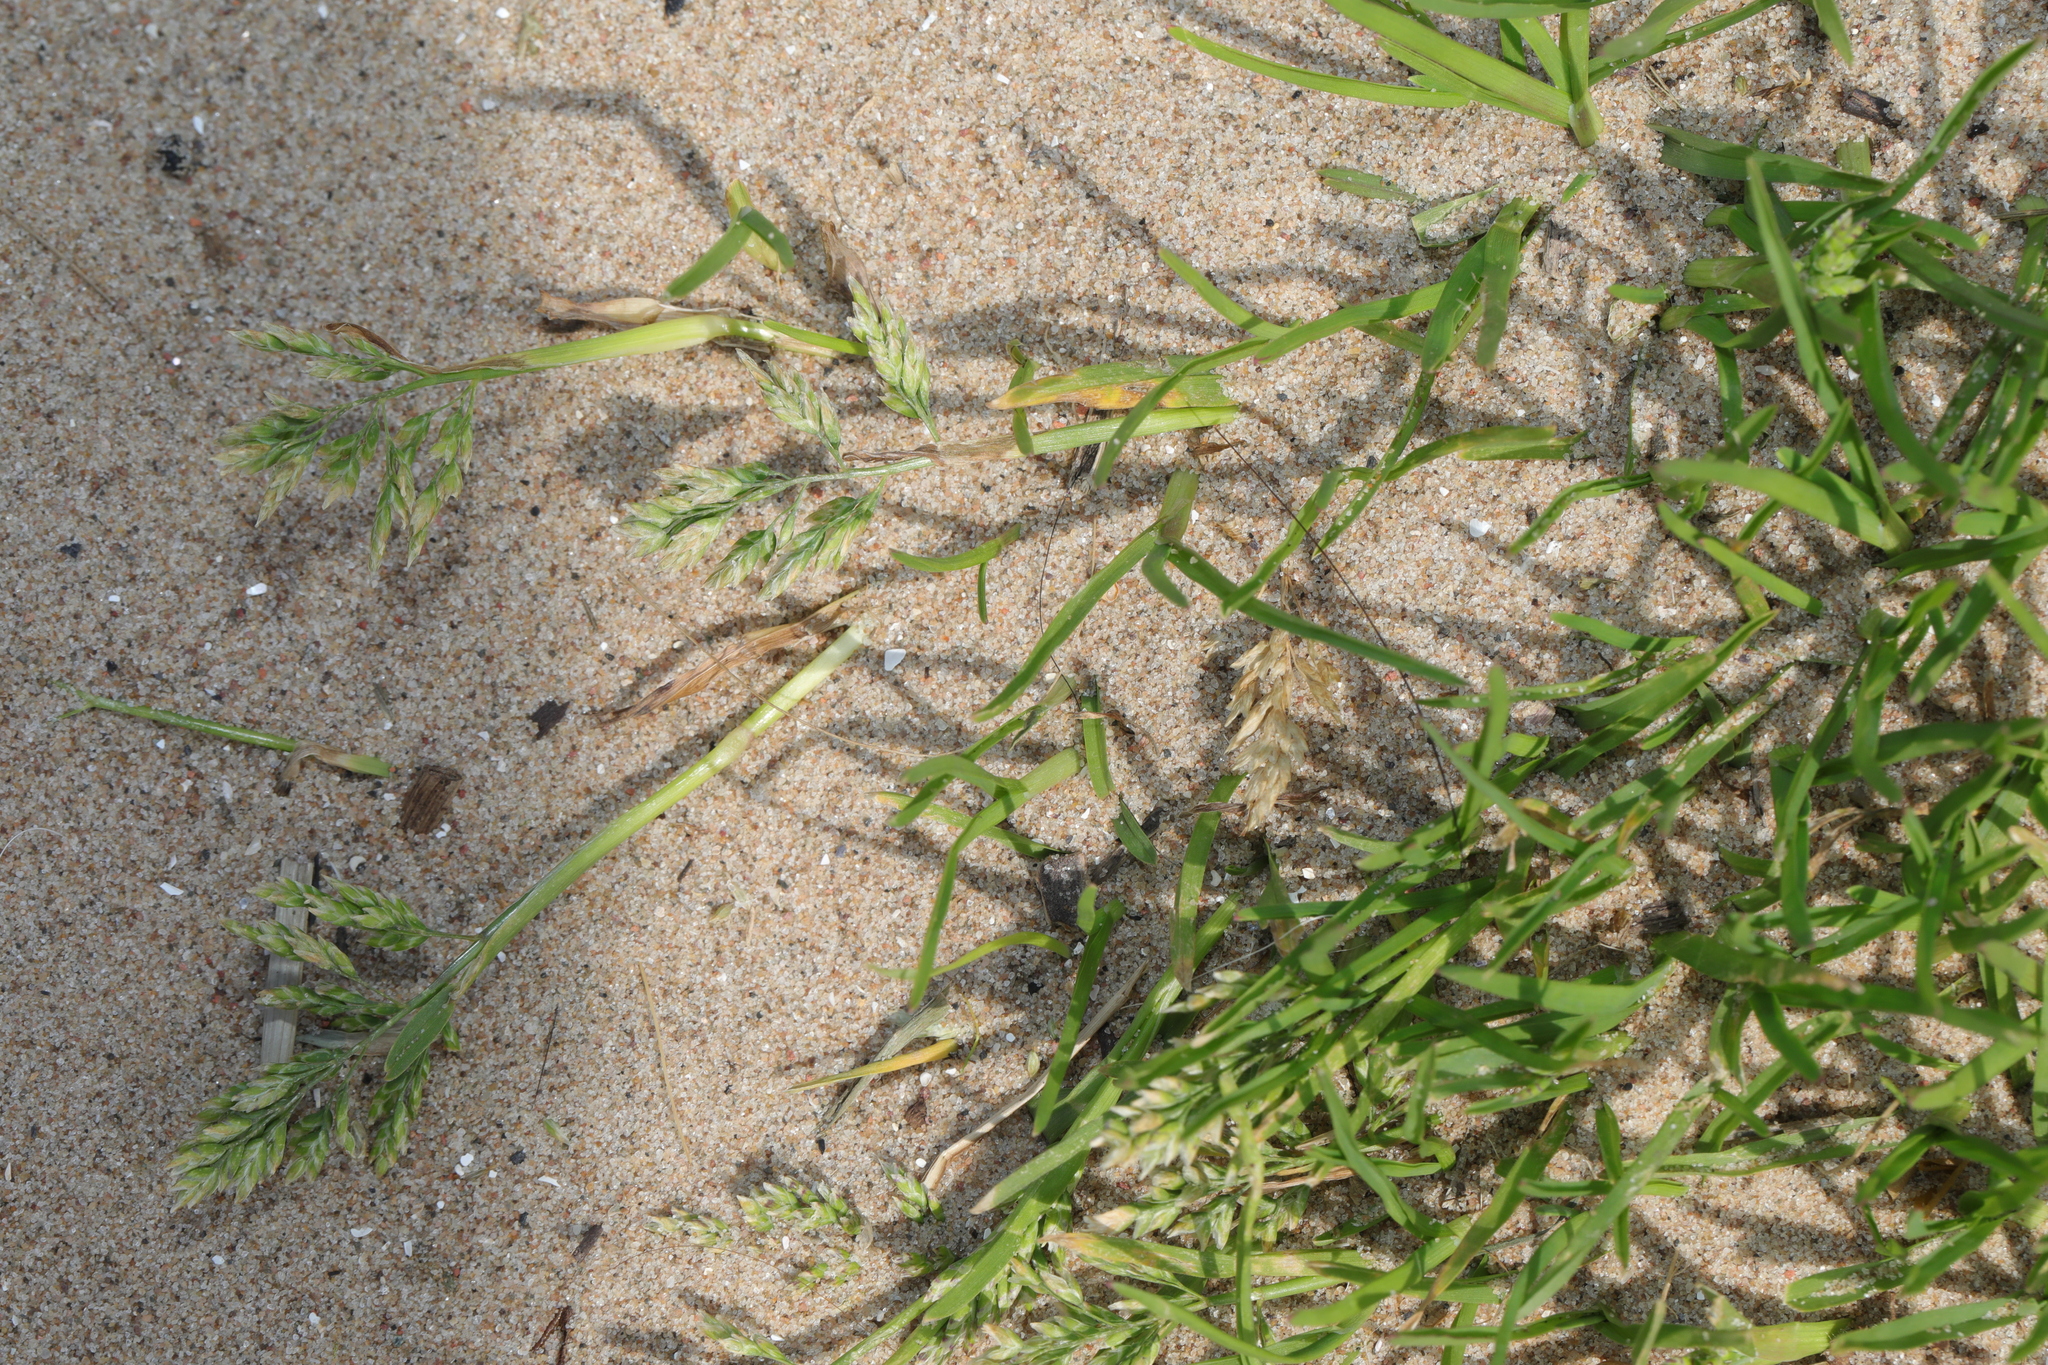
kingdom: Plantae
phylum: Tracheophyta
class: Liliopsida
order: Poales
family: Poaceae
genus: Poa
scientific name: Poa annua
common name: Annual bluegrass
